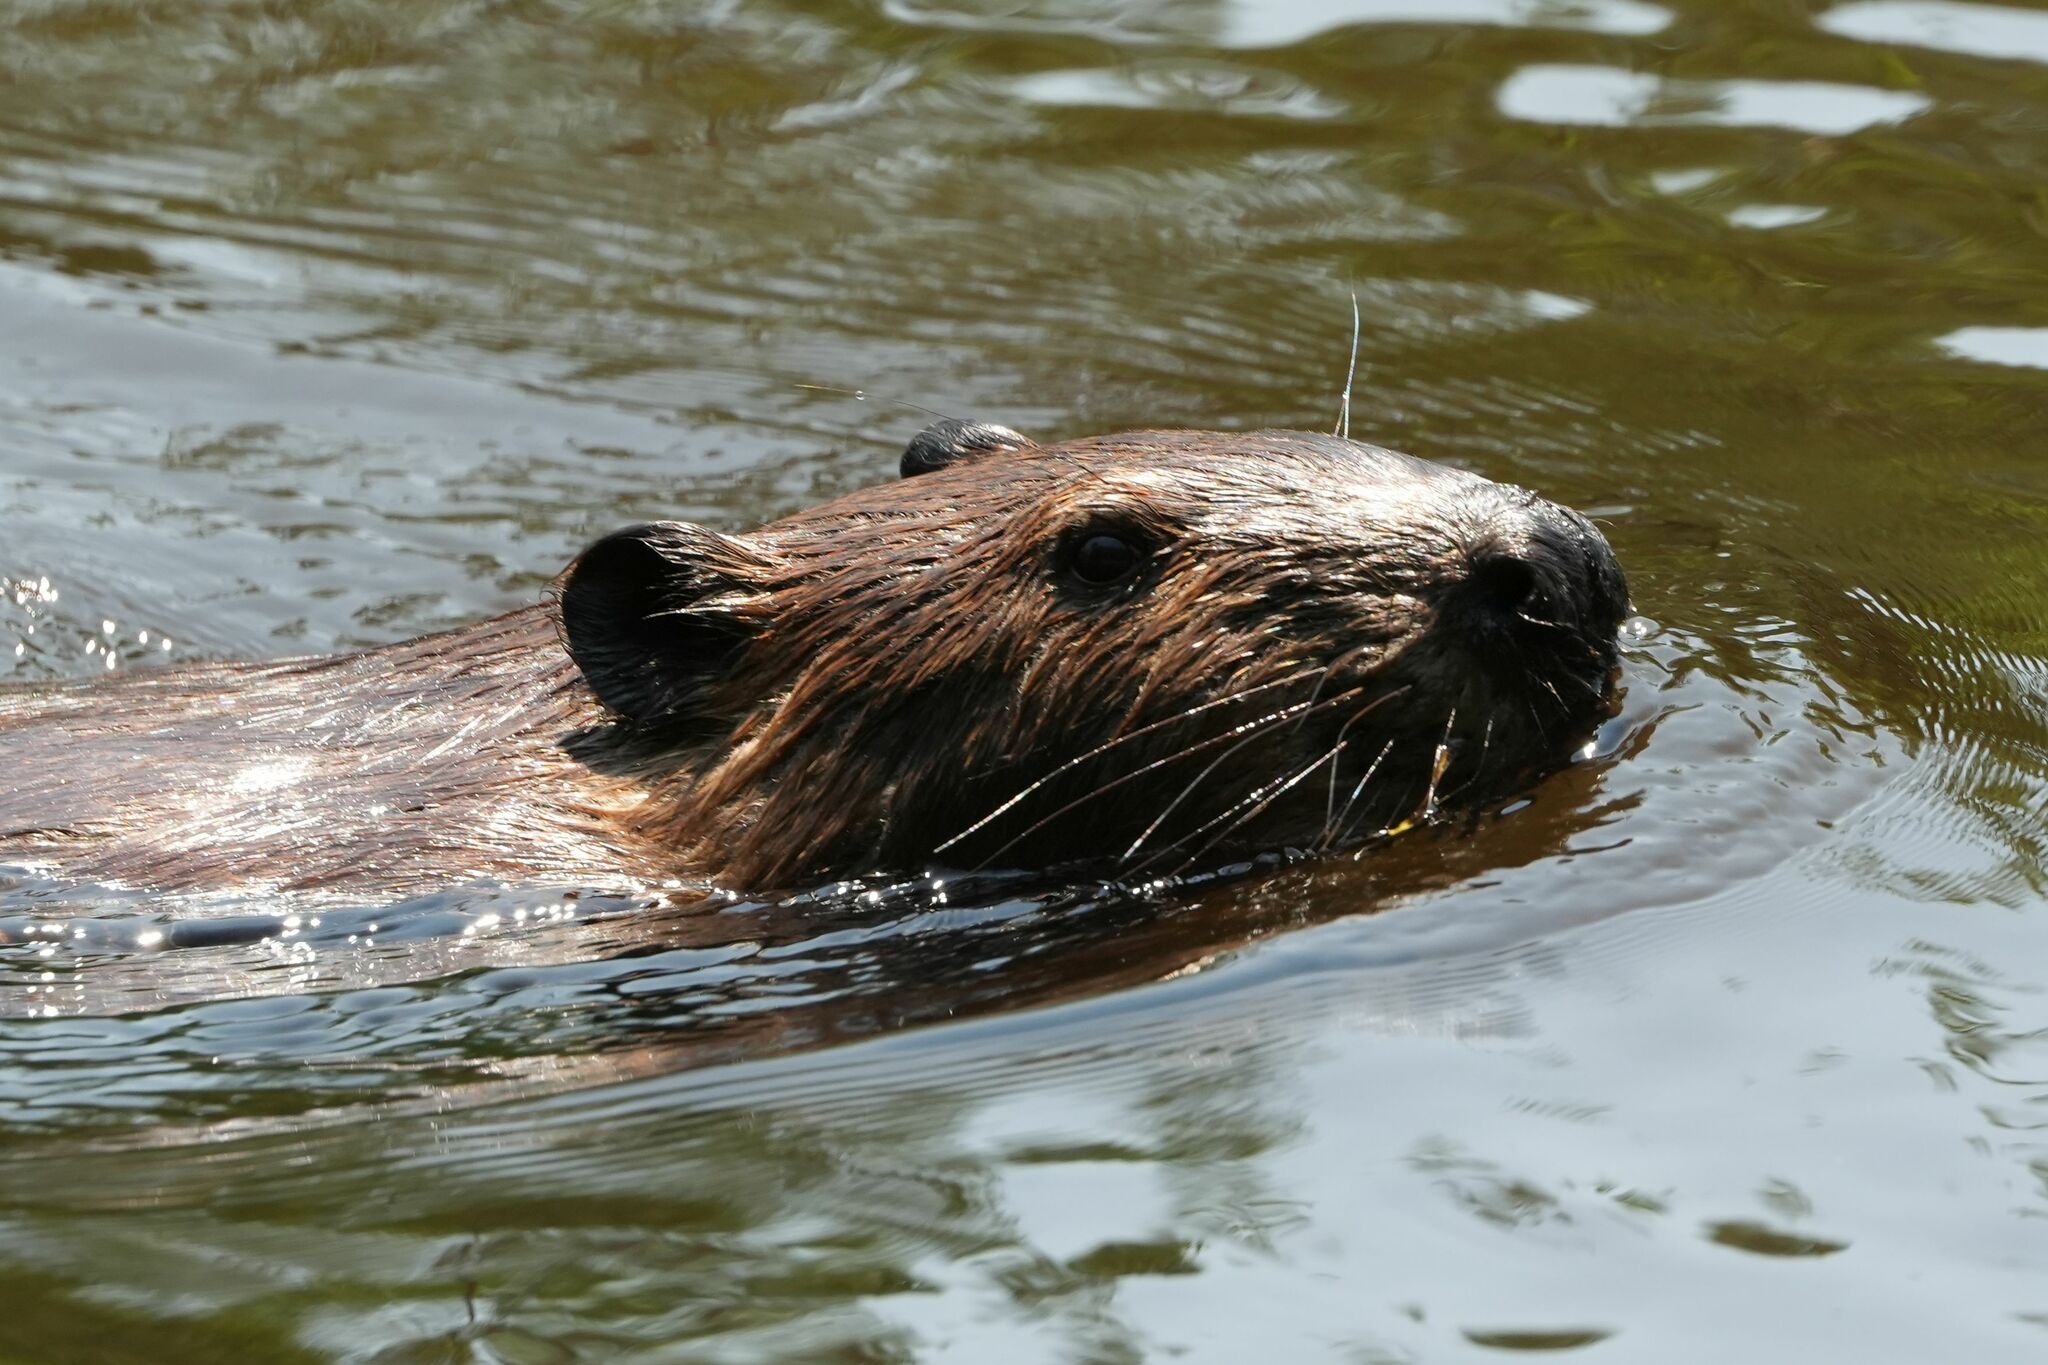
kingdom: Animalia
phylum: Chordata
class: Mammalia
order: Rodentia
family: Castoridae
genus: Castor
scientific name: Castor canadensis
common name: American beaver
